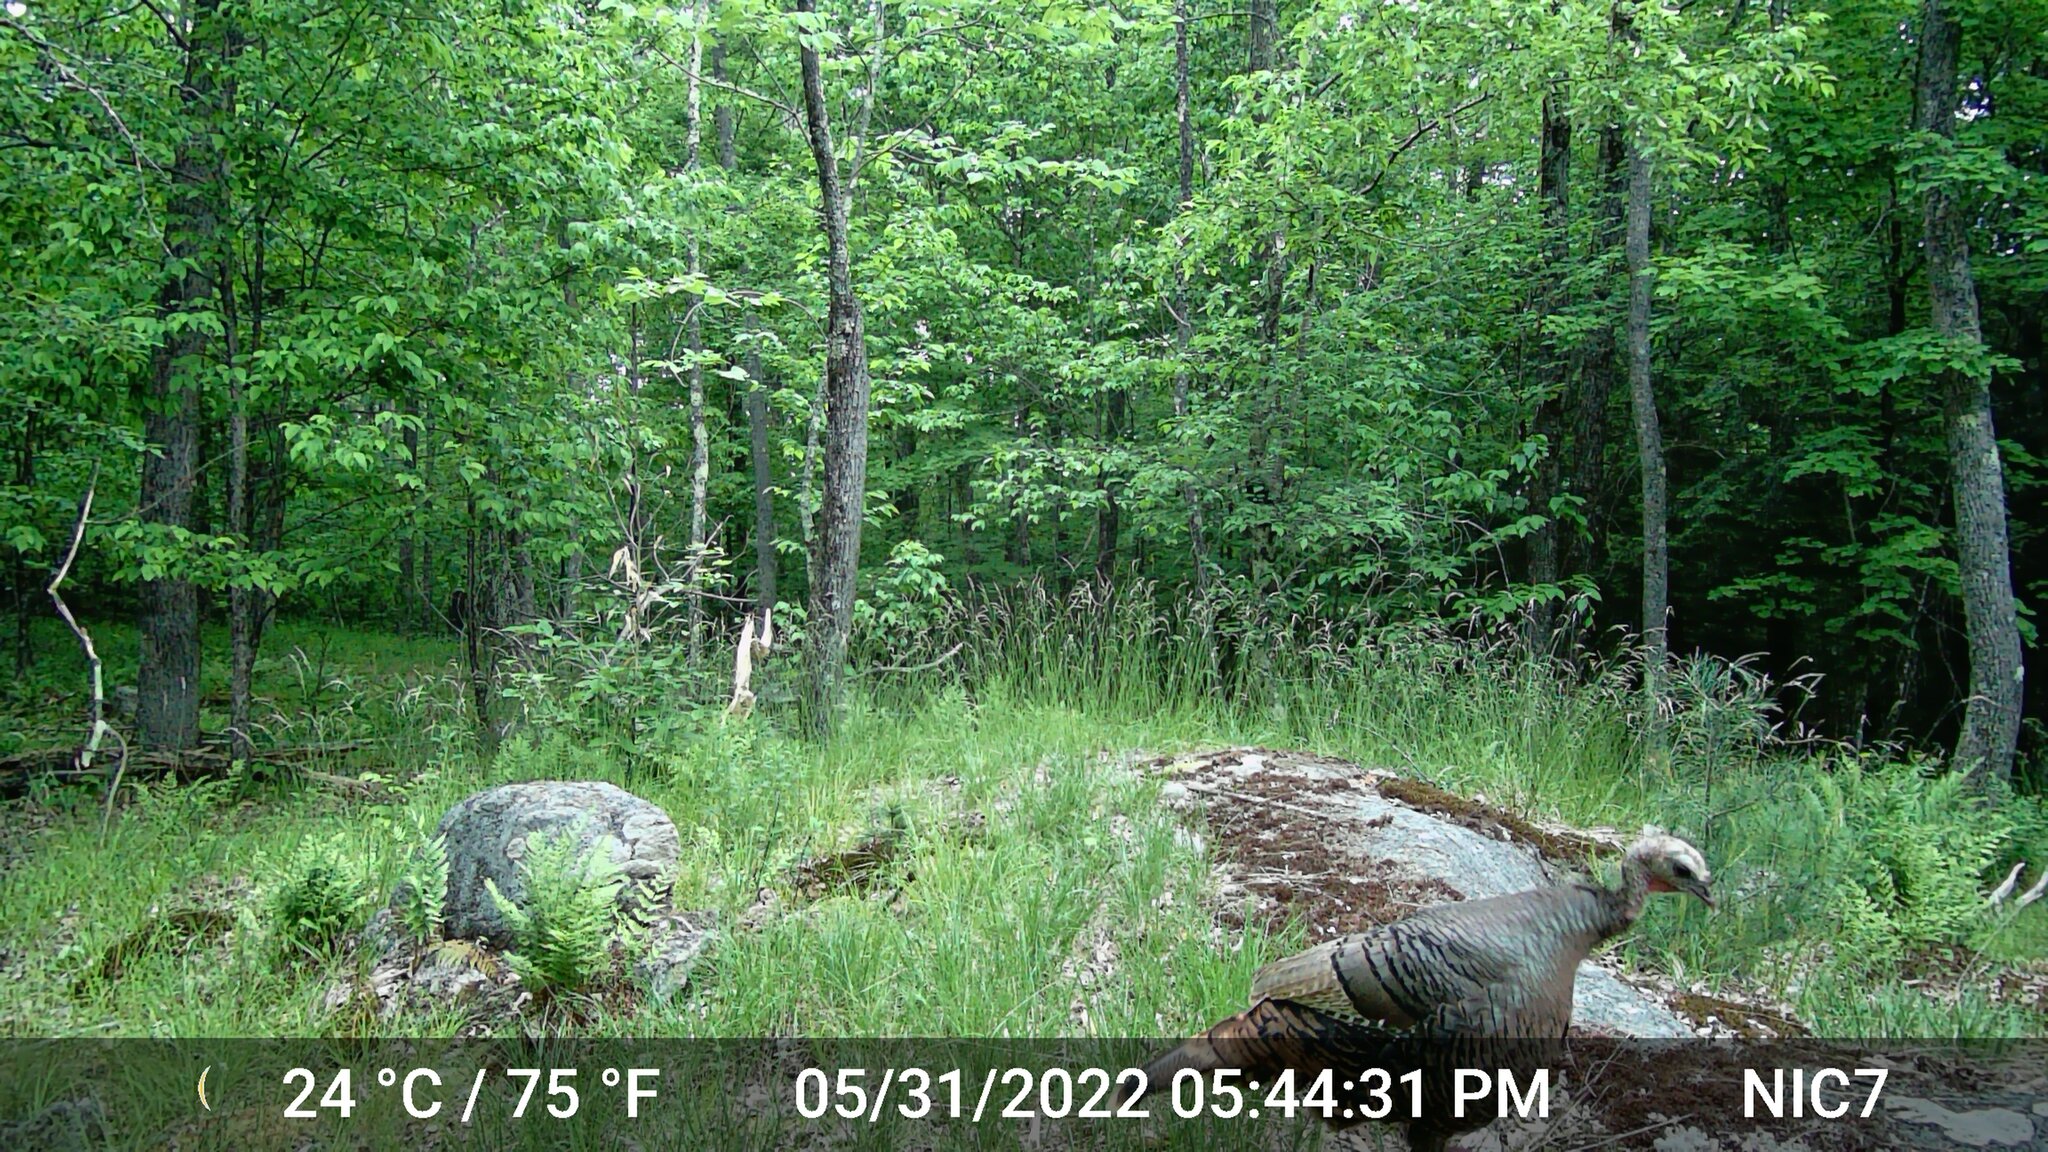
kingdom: Animalia
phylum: Chordata
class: Aves
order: Galliformes
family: Phasianidae
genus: Meleagris
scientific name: Meleagris gallopavo
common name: Wild turkey
